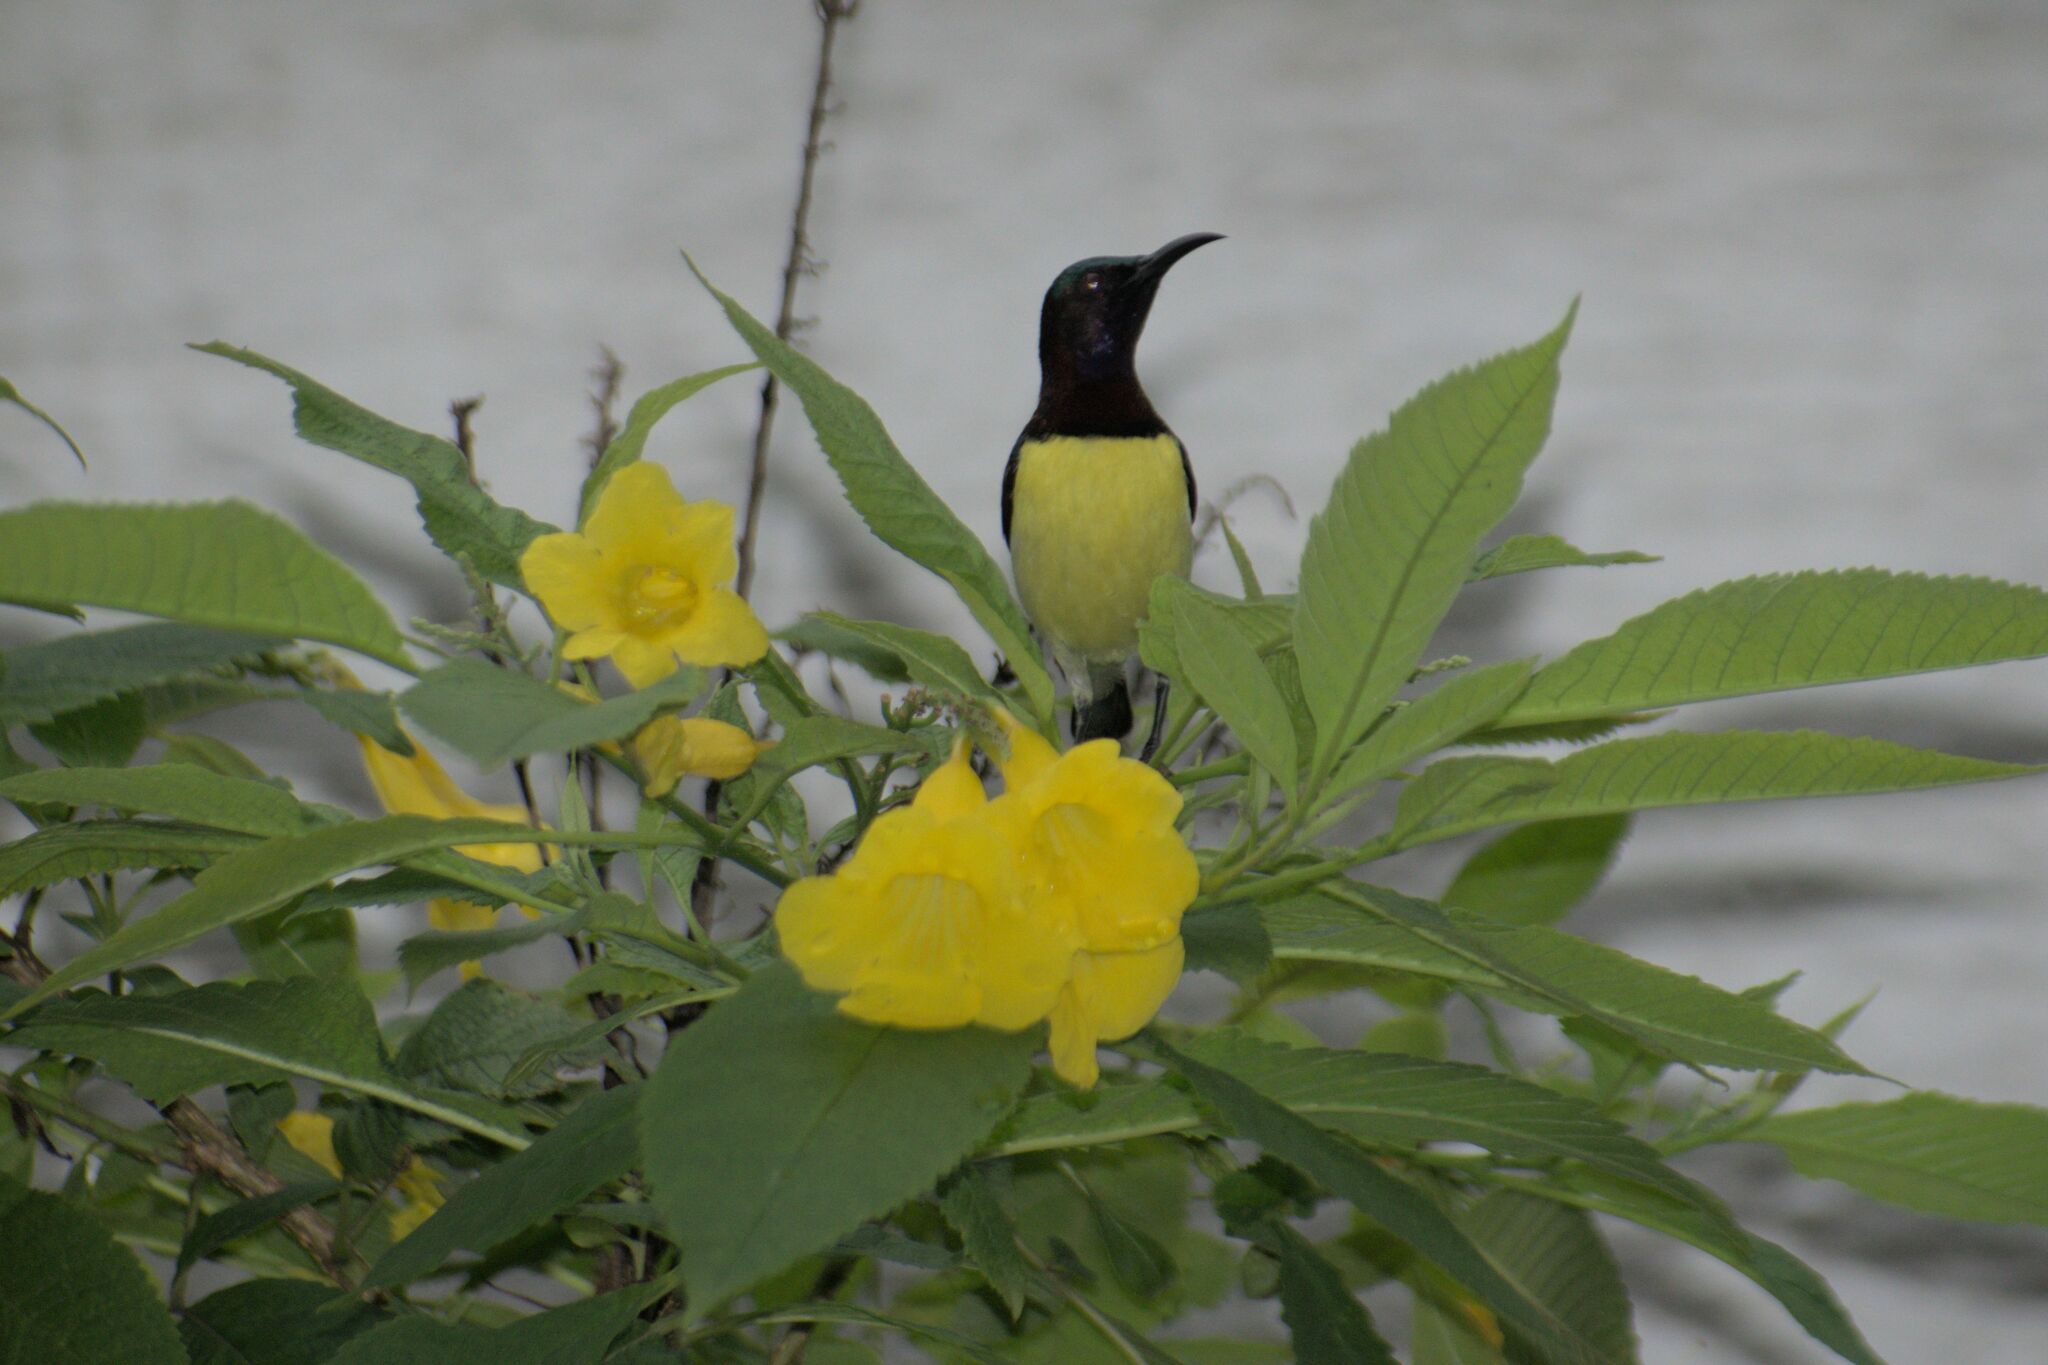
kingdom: Animalia
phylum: Chordata
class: Aves
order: Passeriformes
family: Nectariniidae
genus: Leptocoma
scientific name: Leptocoma zeylonica
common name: Purple-rumped sunbird
